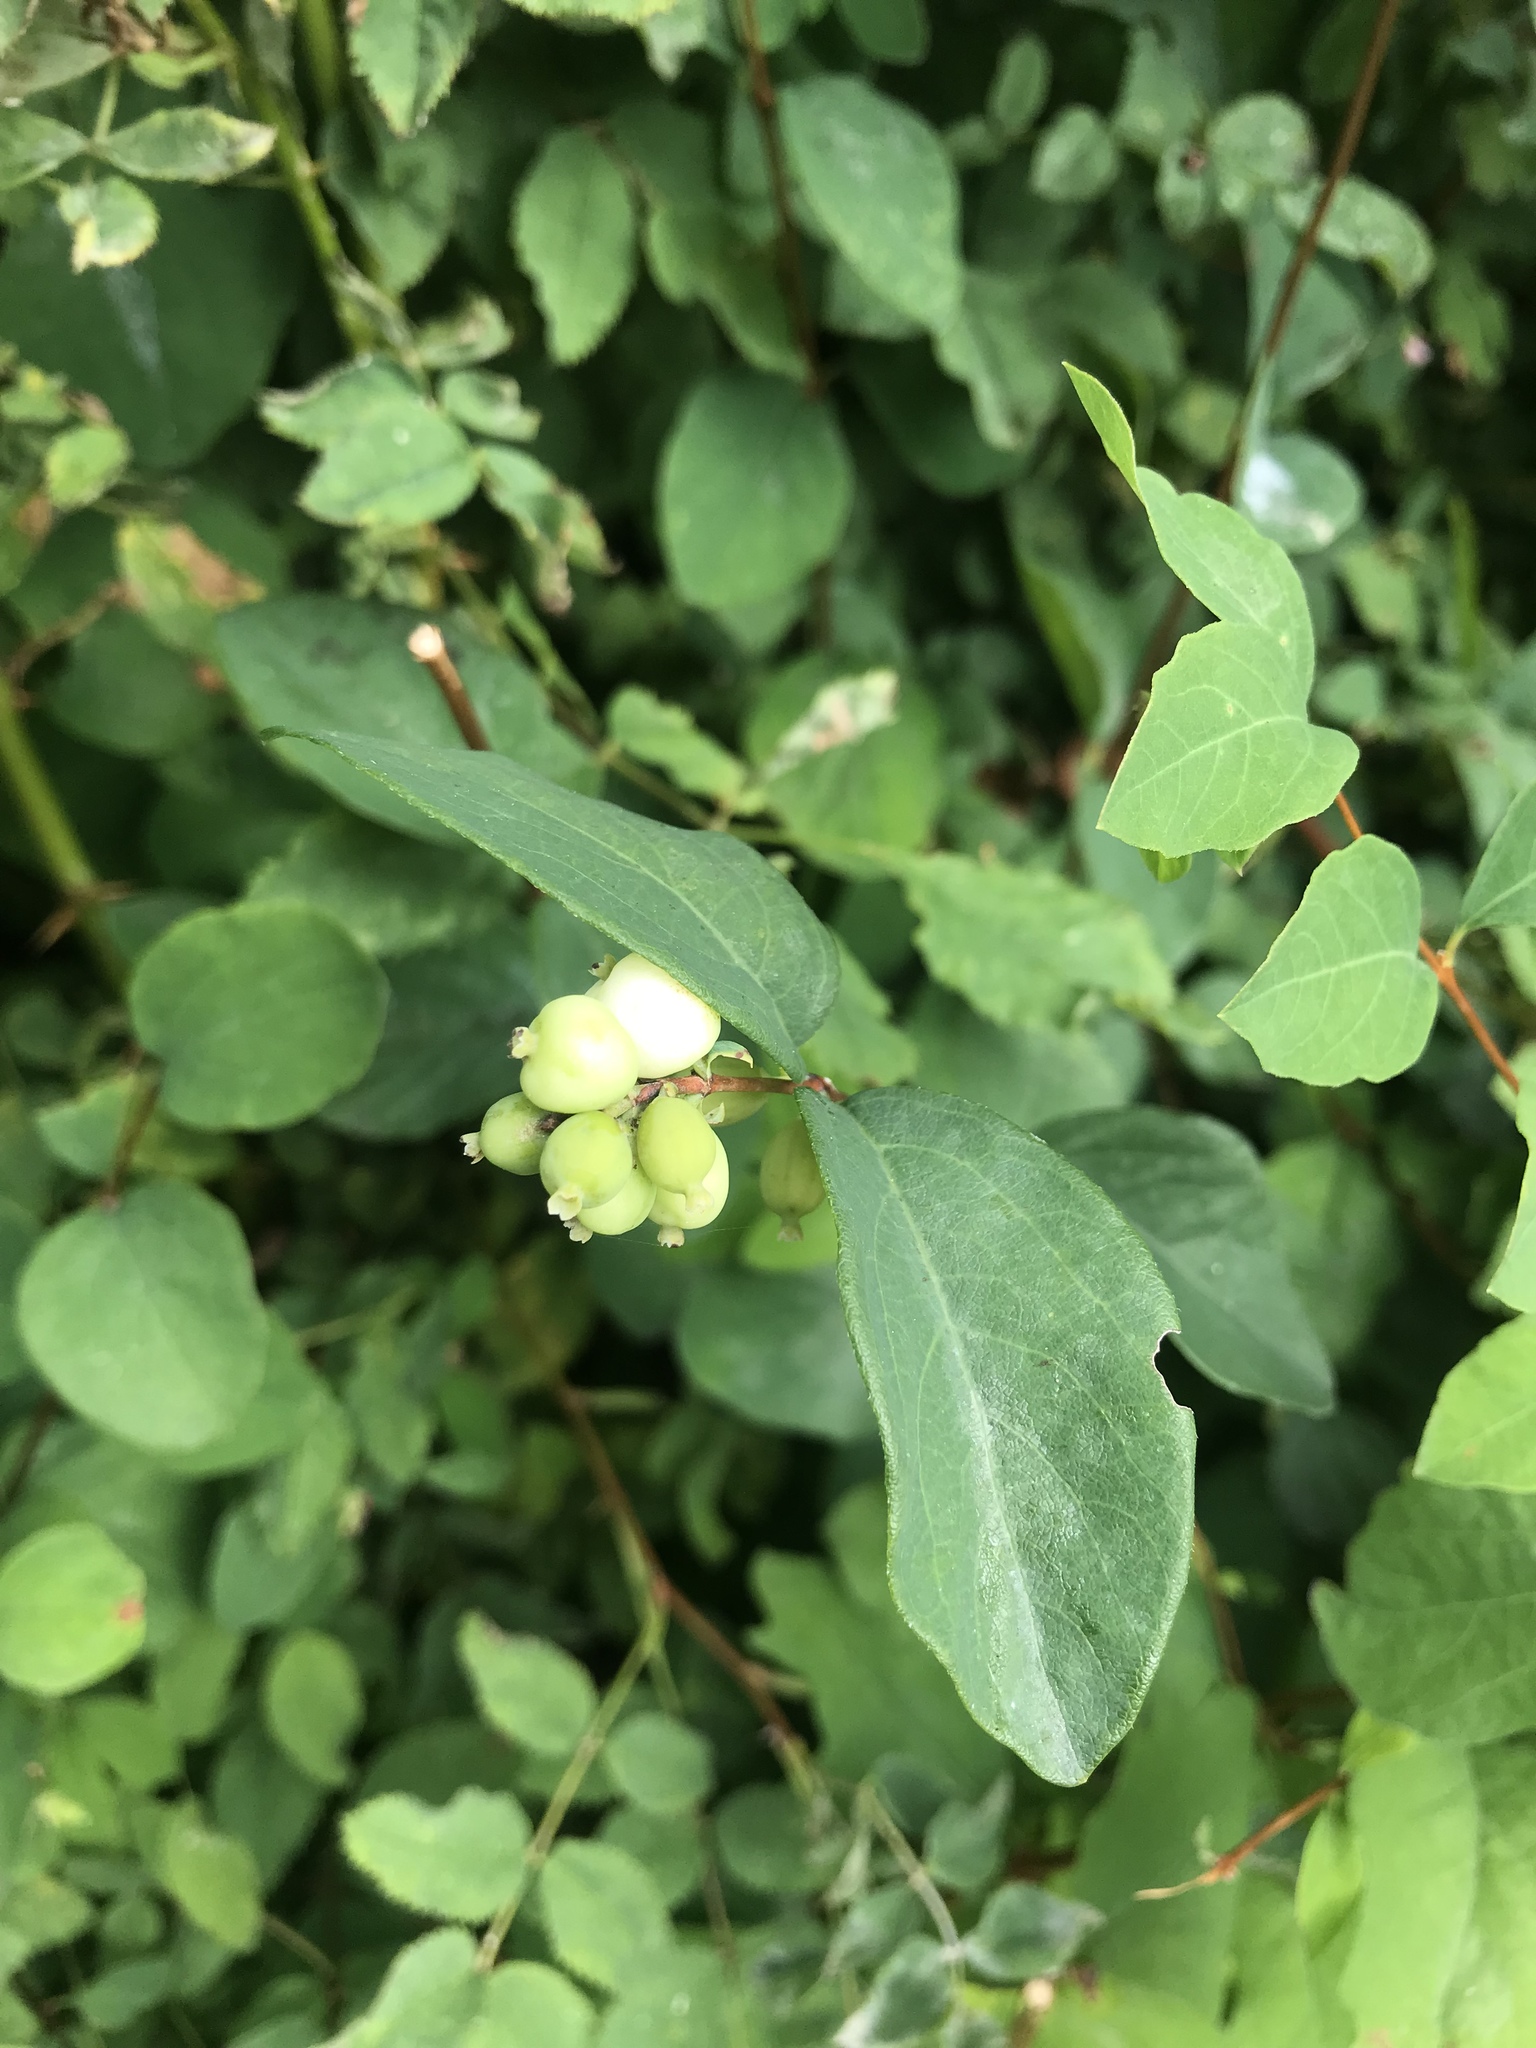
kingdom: Plantae
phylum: Tracheophyta
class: Magnoliopsida
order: Dipsacales
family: Caprifoliaceae
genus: Symphoricarpos
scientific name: Symphoricarpos albus
